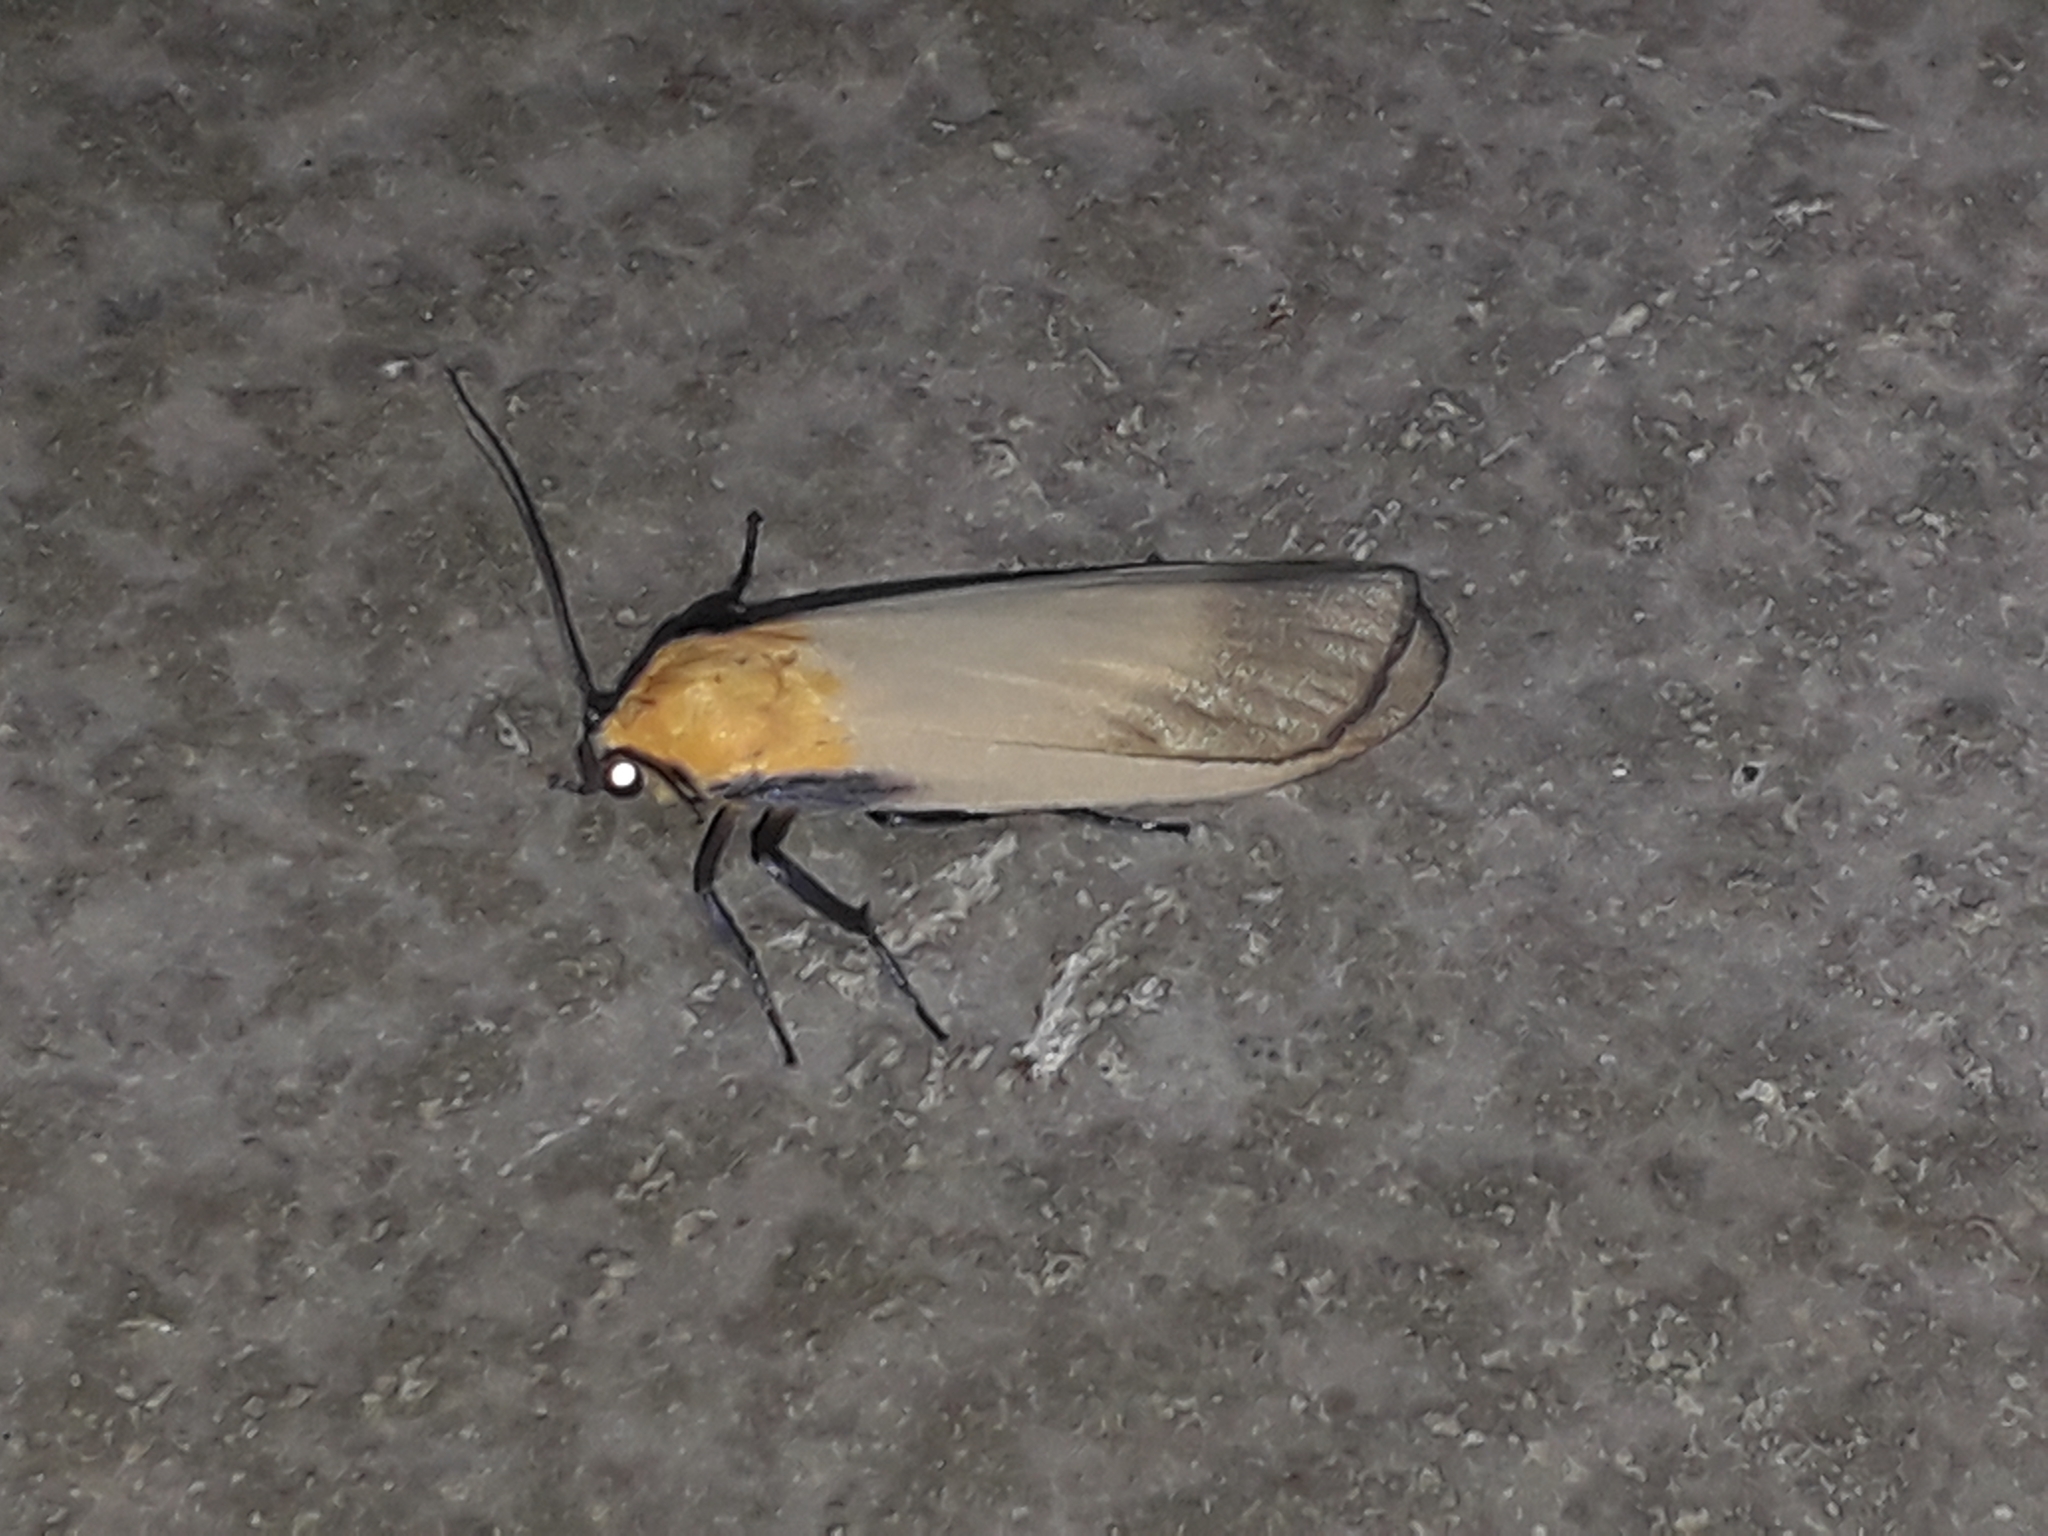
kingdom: Animalia
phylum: Arthropoda
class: Insecta
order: Lepidoptera
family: Erebidae
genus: Lithosia
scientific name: Lithosia quadra
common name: Four-spotted footman
